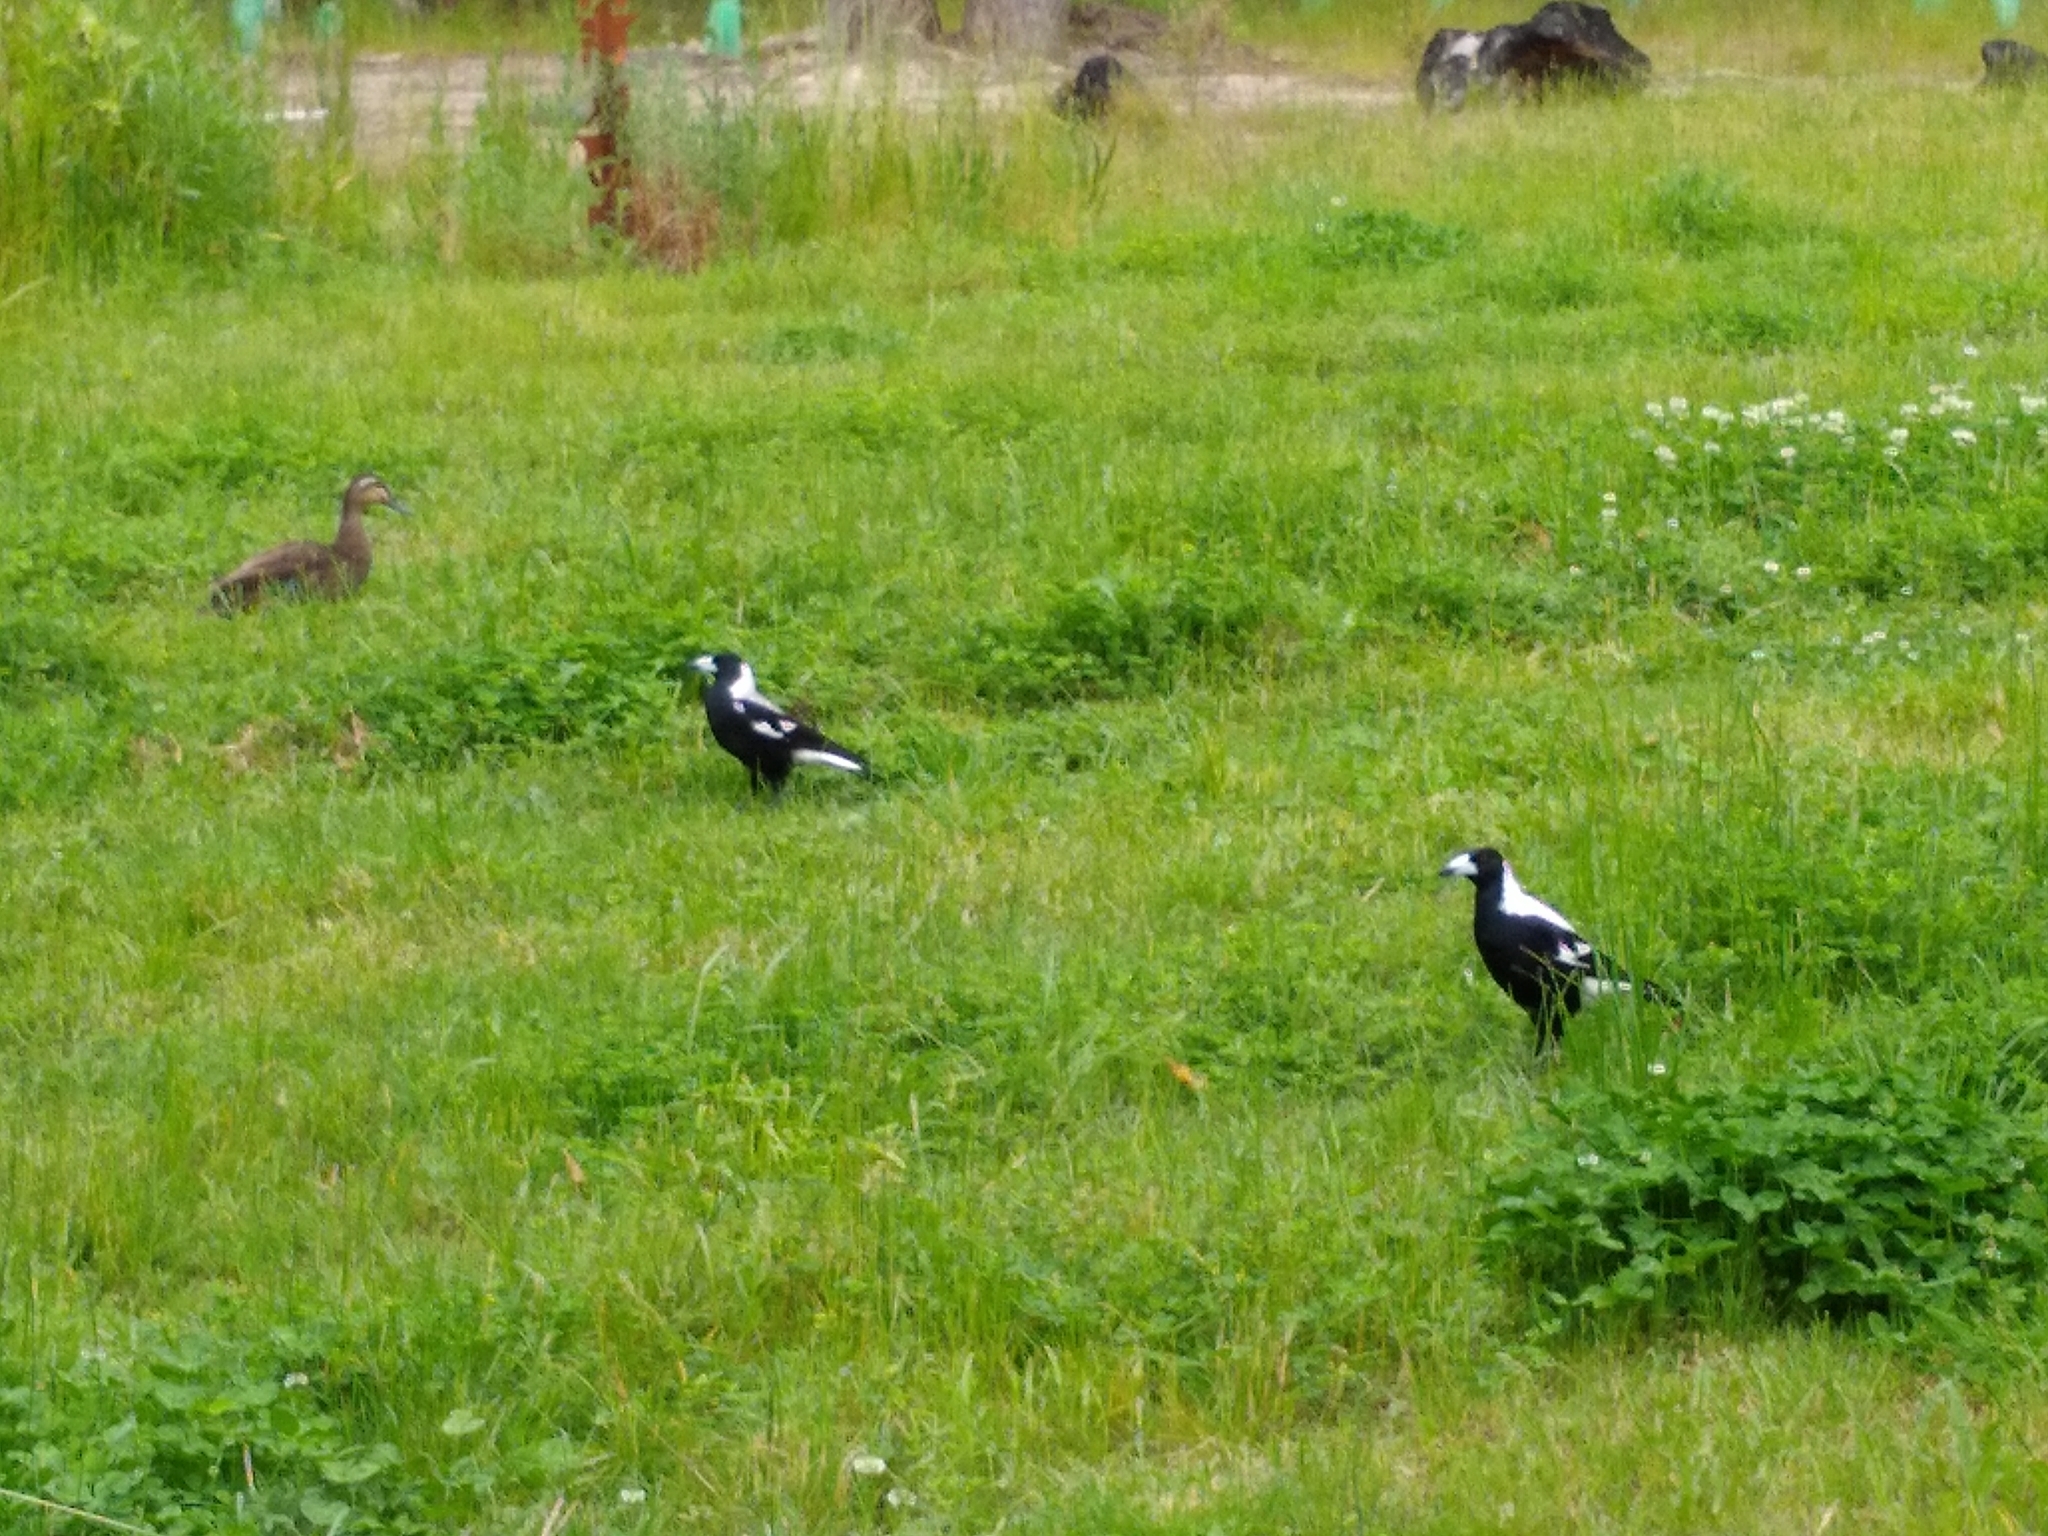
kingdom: Animalia
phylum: Chordata
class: Aves
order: Passeriformes
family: Cracticidae
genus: Gymnorhina
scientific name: Gymnorhina tibicen
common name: Australian magpie
